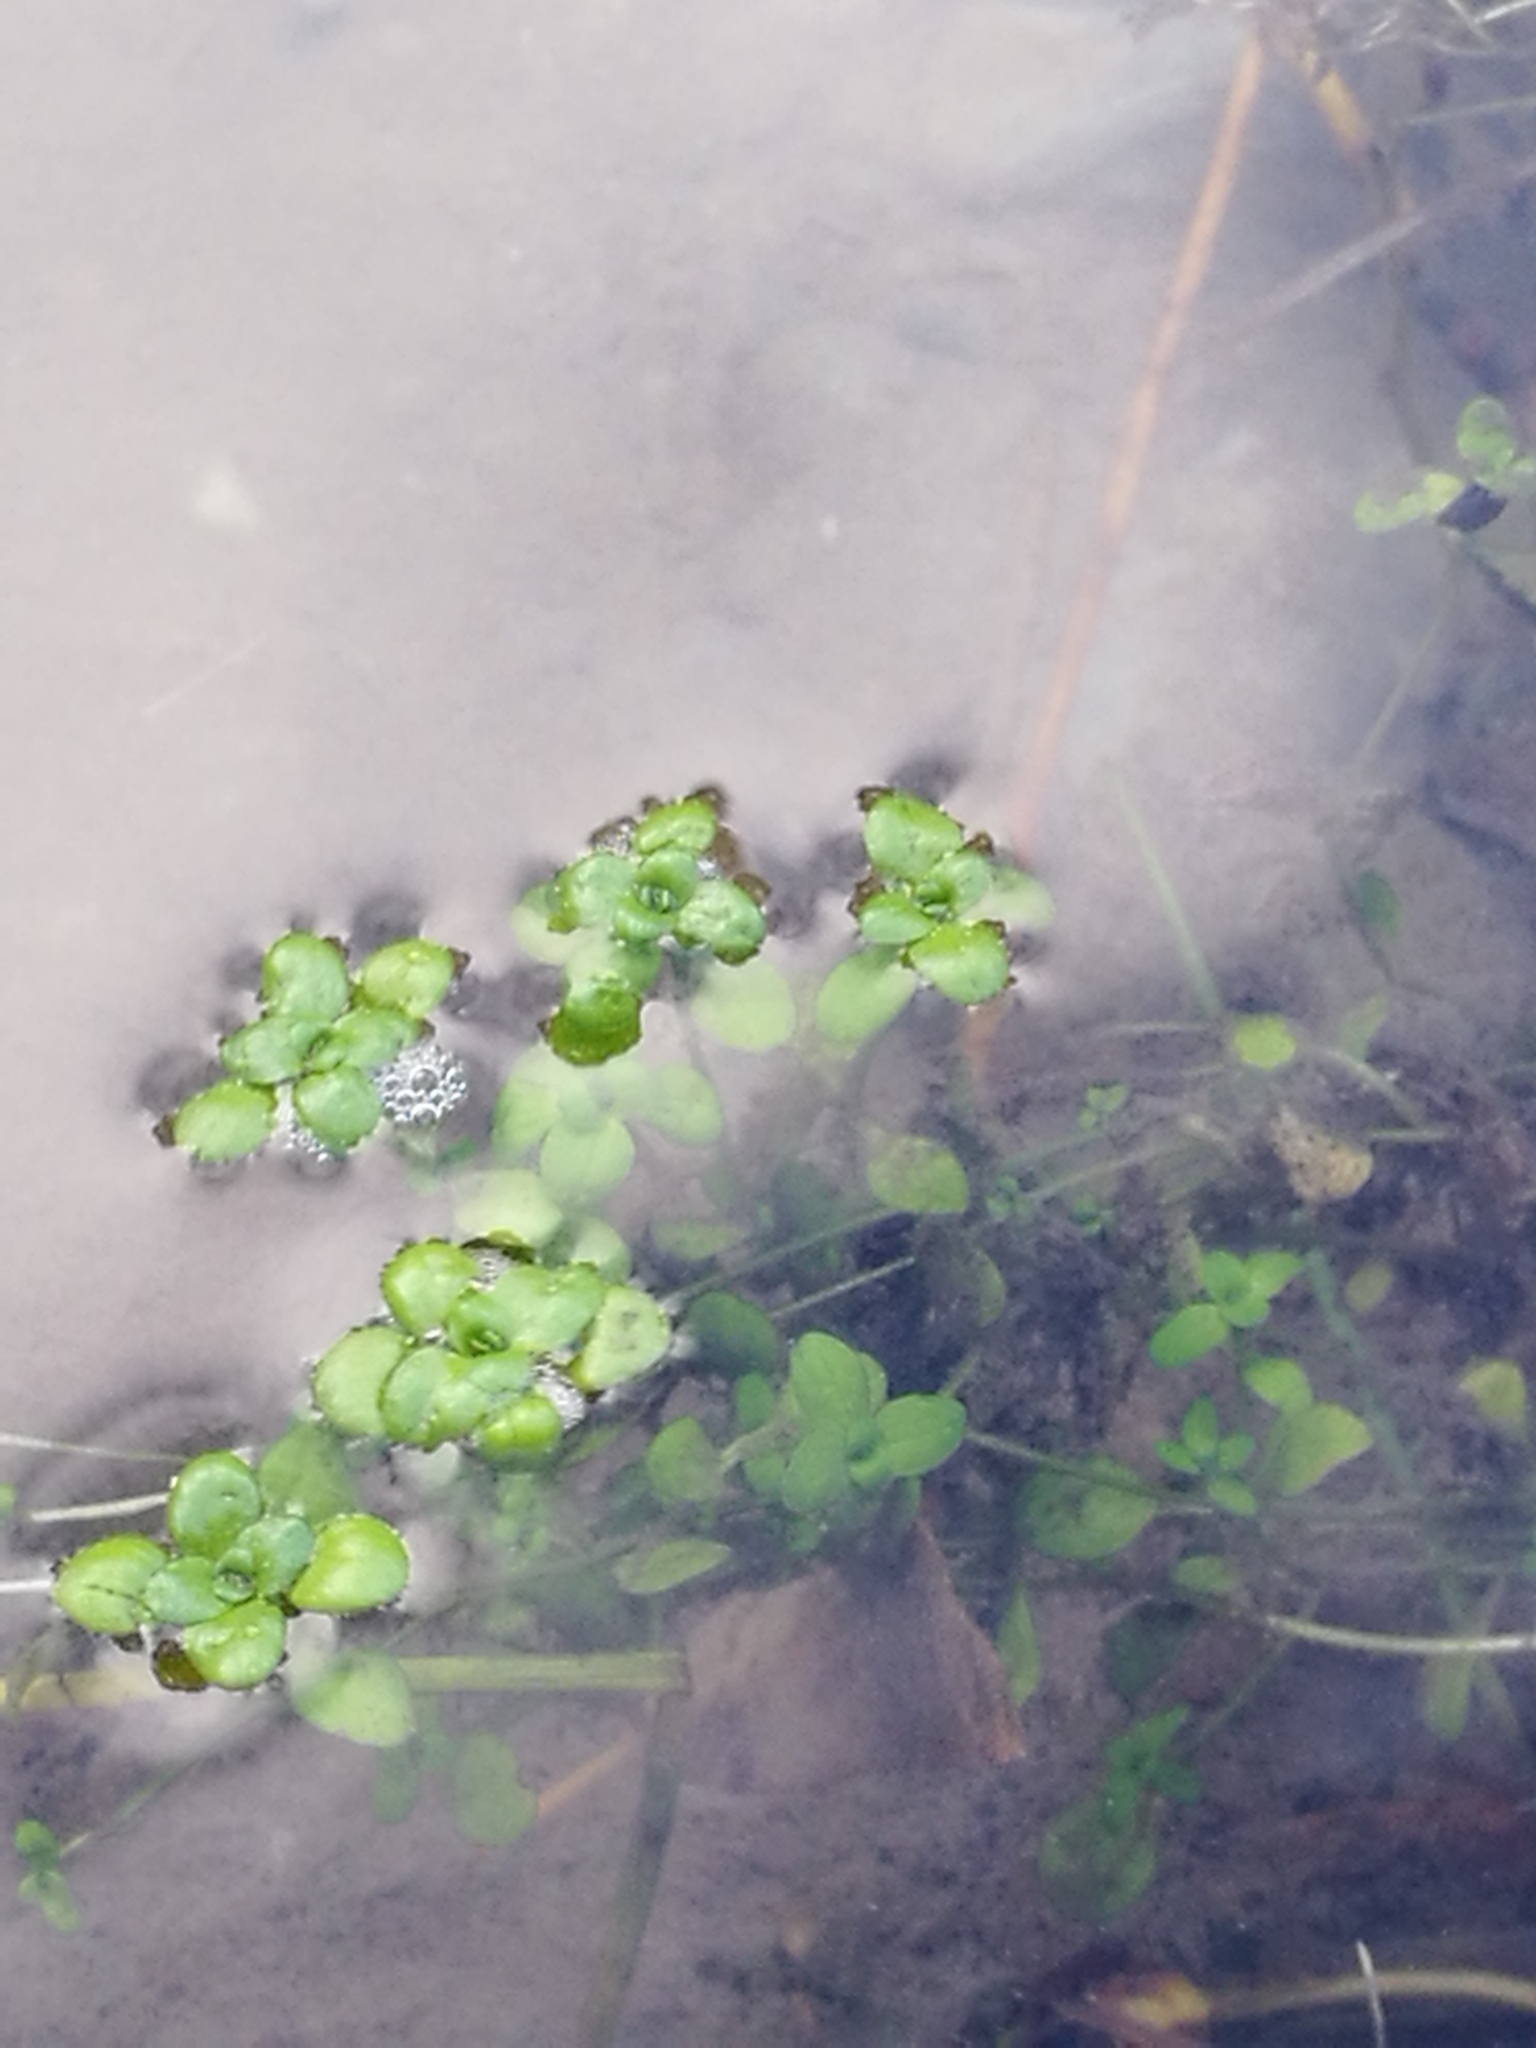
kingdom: Plantae
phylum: Tracheophyta
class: Magnoliopsida
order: Lamiales
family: Plantaginaceae
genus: Callitriche
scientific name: Callitriche stagnalis
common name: Common water-starwort
